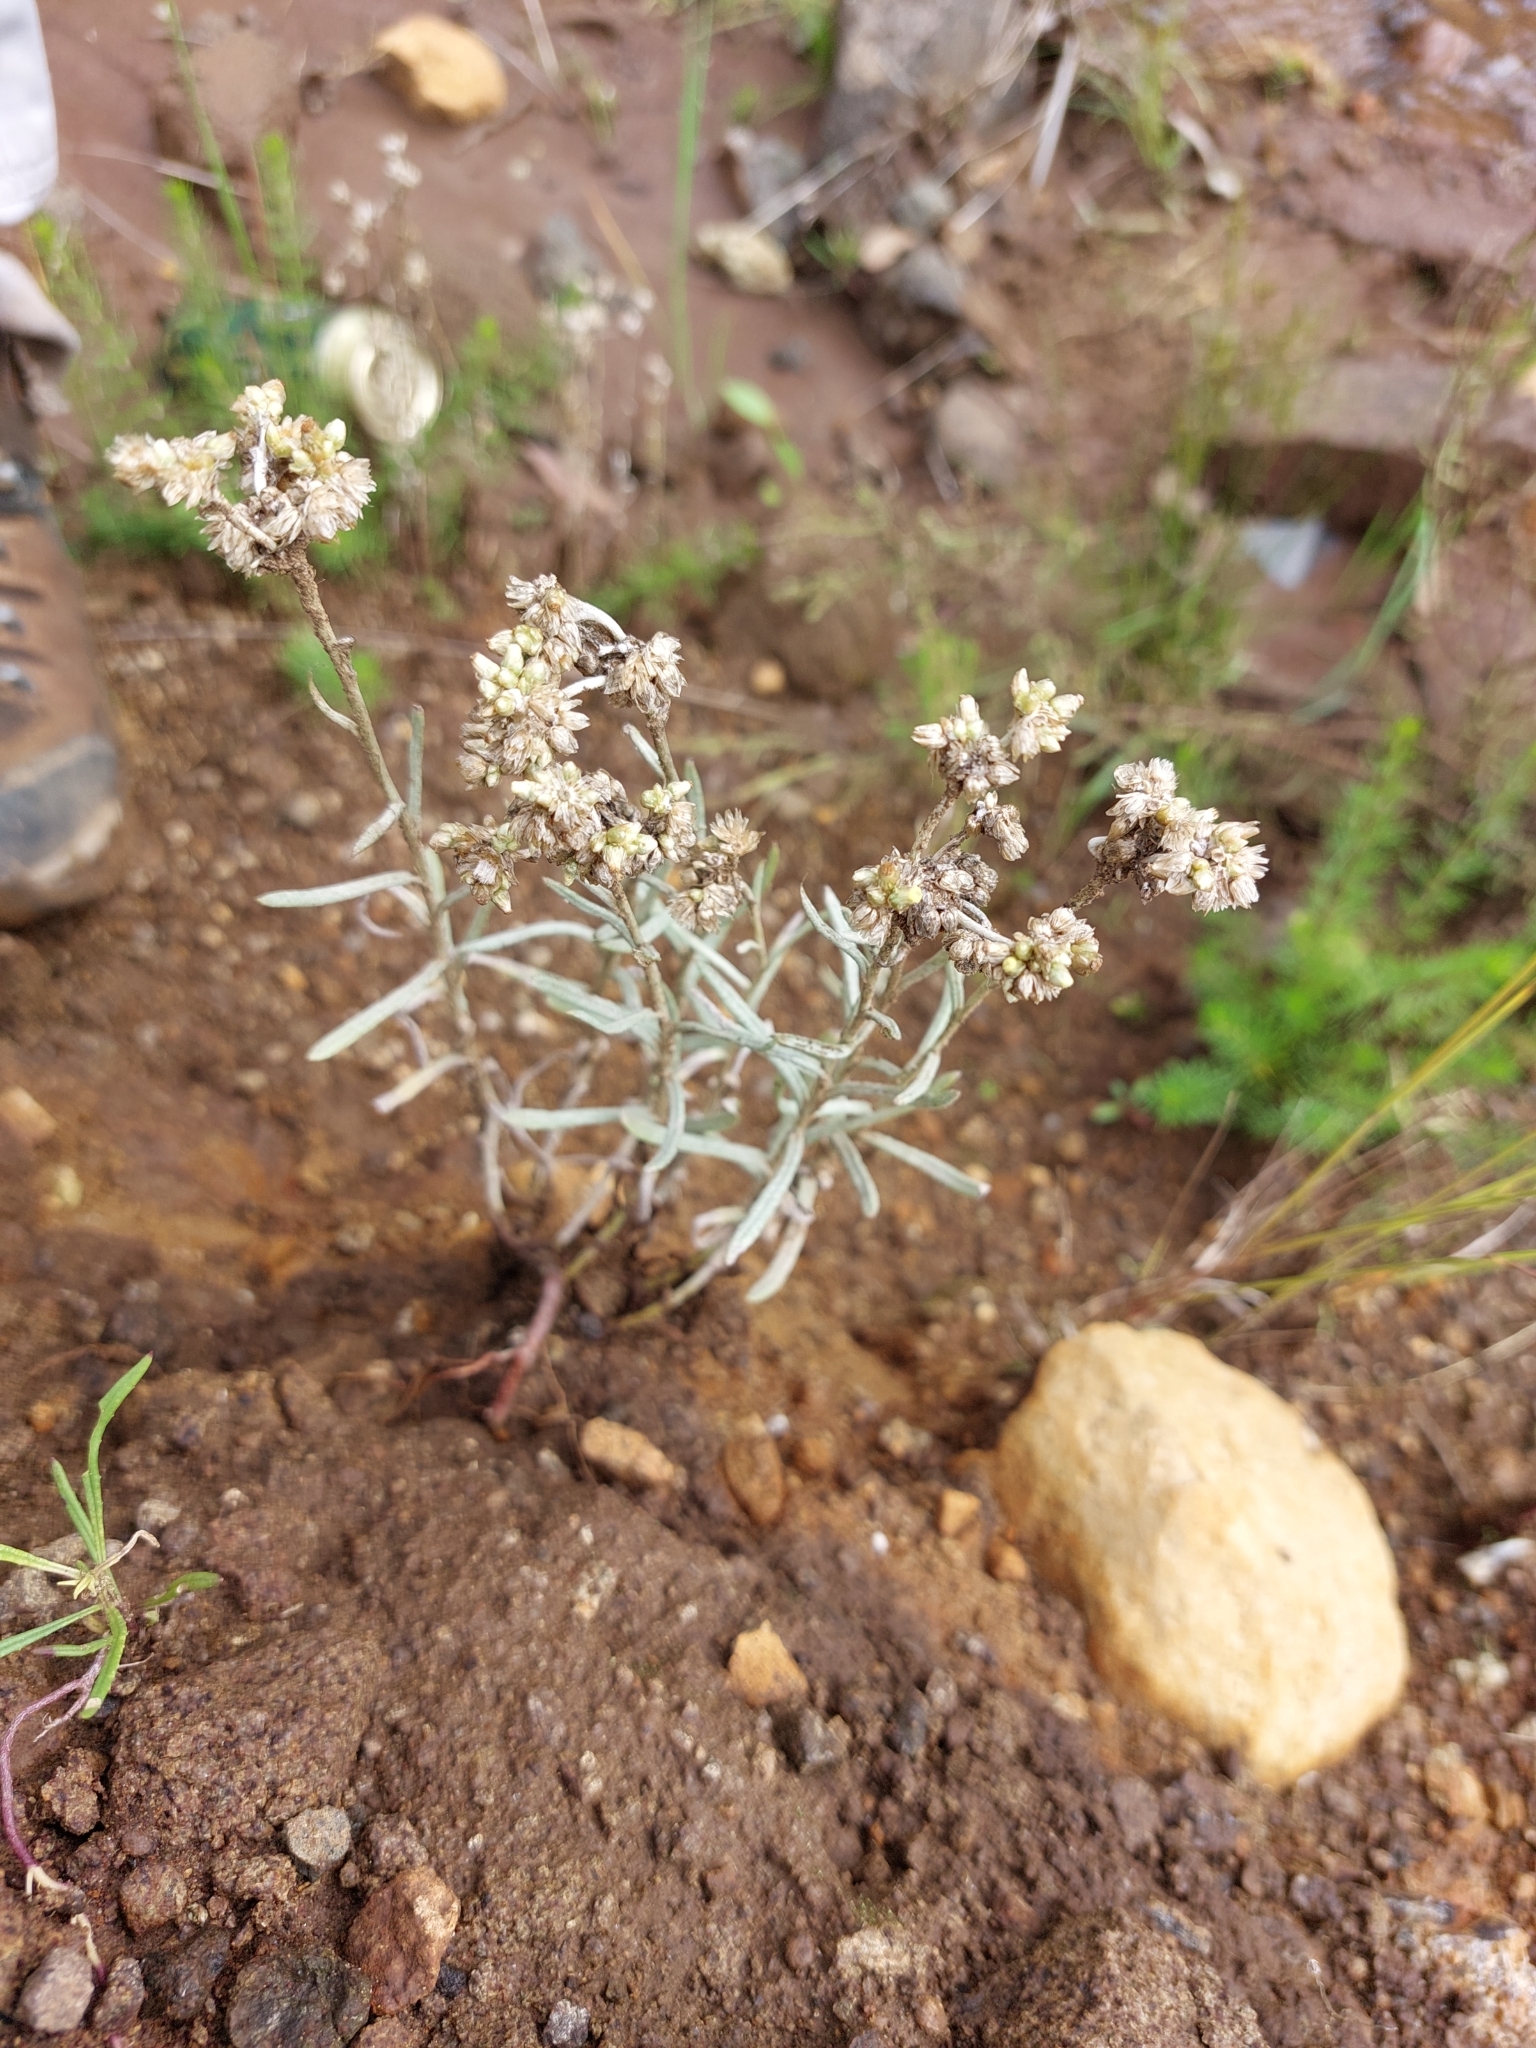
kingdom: Plantae
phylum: Tracheophyta
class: Magnoliopsida
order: Asterales
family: Asteraceae
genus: Helichrysum
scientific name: Helichrysum splendidum
